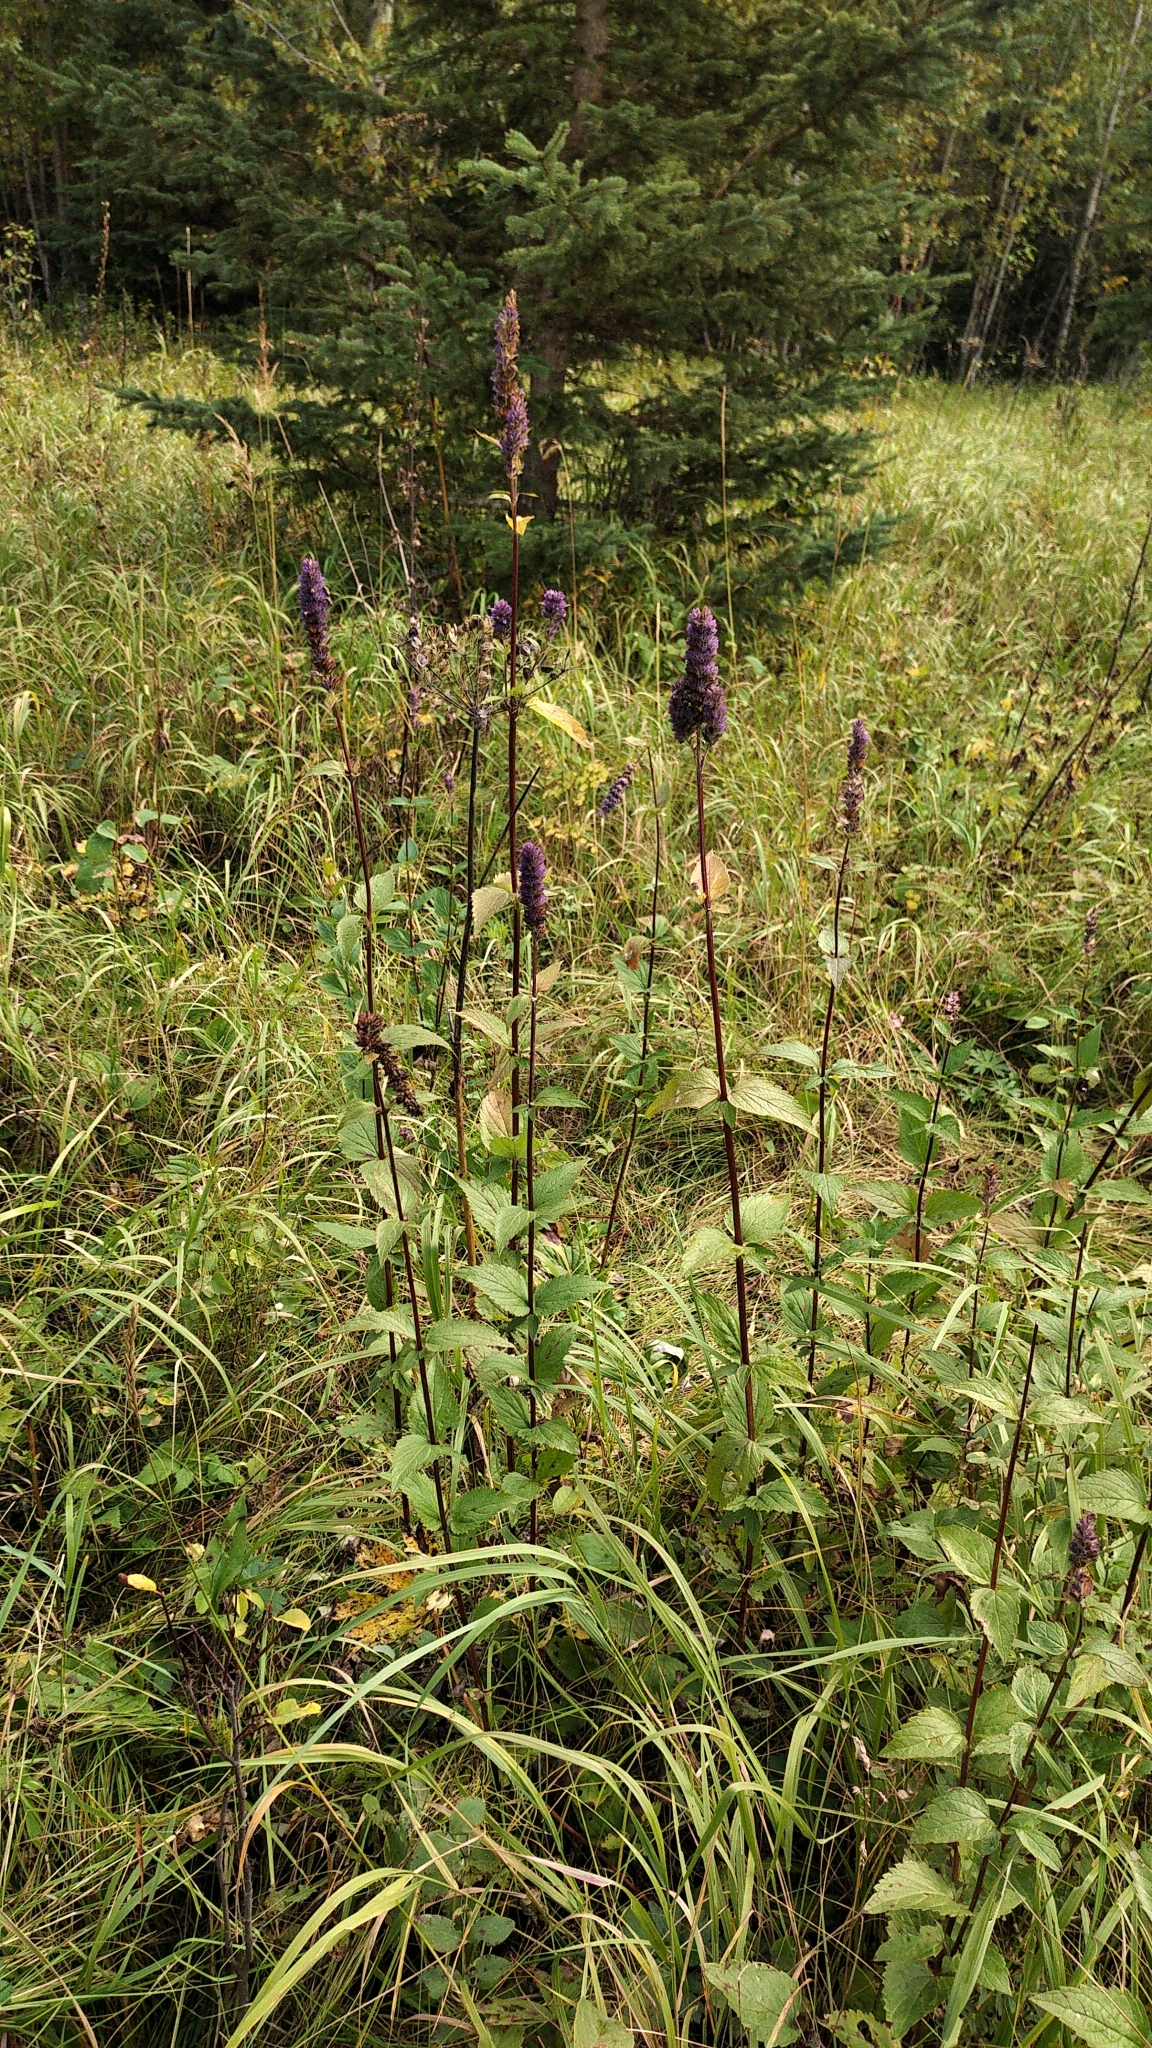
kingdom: Plantae
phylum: Tracheophyta
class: Magnoliopsida
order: Lamiales
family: Lamiaceae
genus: Agastache
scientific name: Agastache foeniculum
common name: Anise hyssop
